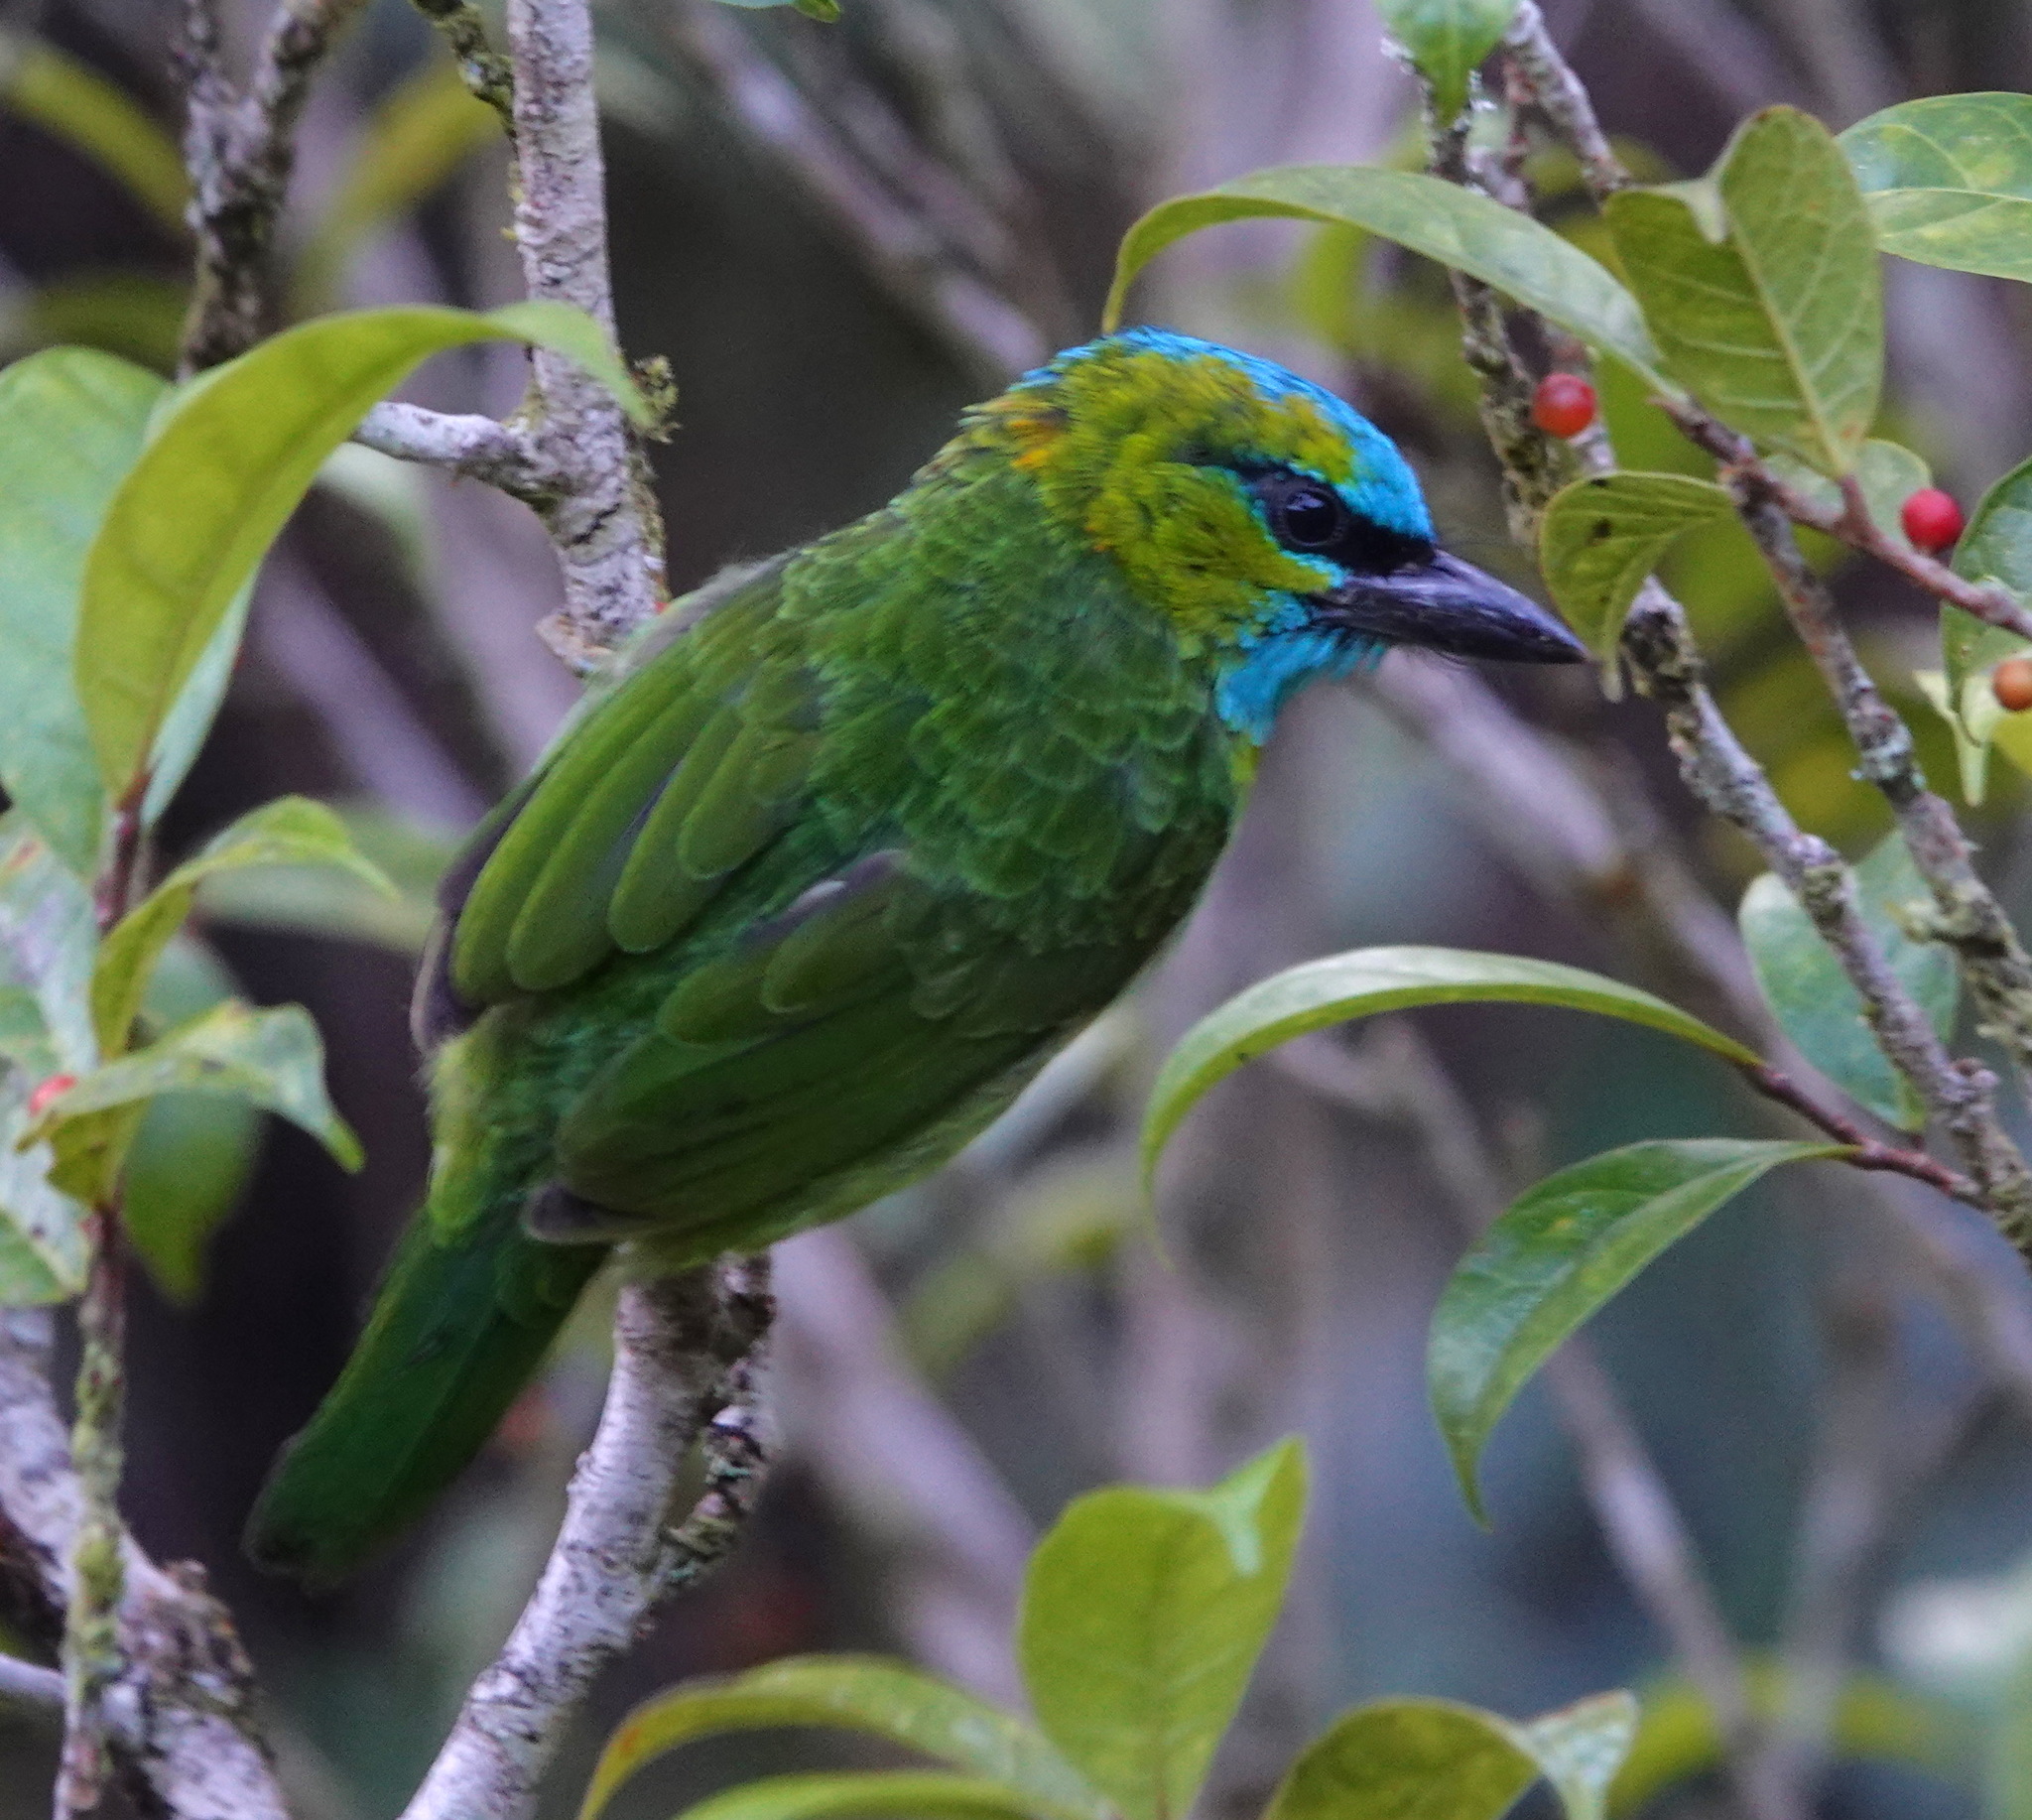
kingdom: Animalia
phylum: Chordata
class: Aves
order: Piciformes
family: Megalaimidae
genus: Psilopogon
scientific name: Psilopogon pulcherrimus
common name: Golden-naped barbet
